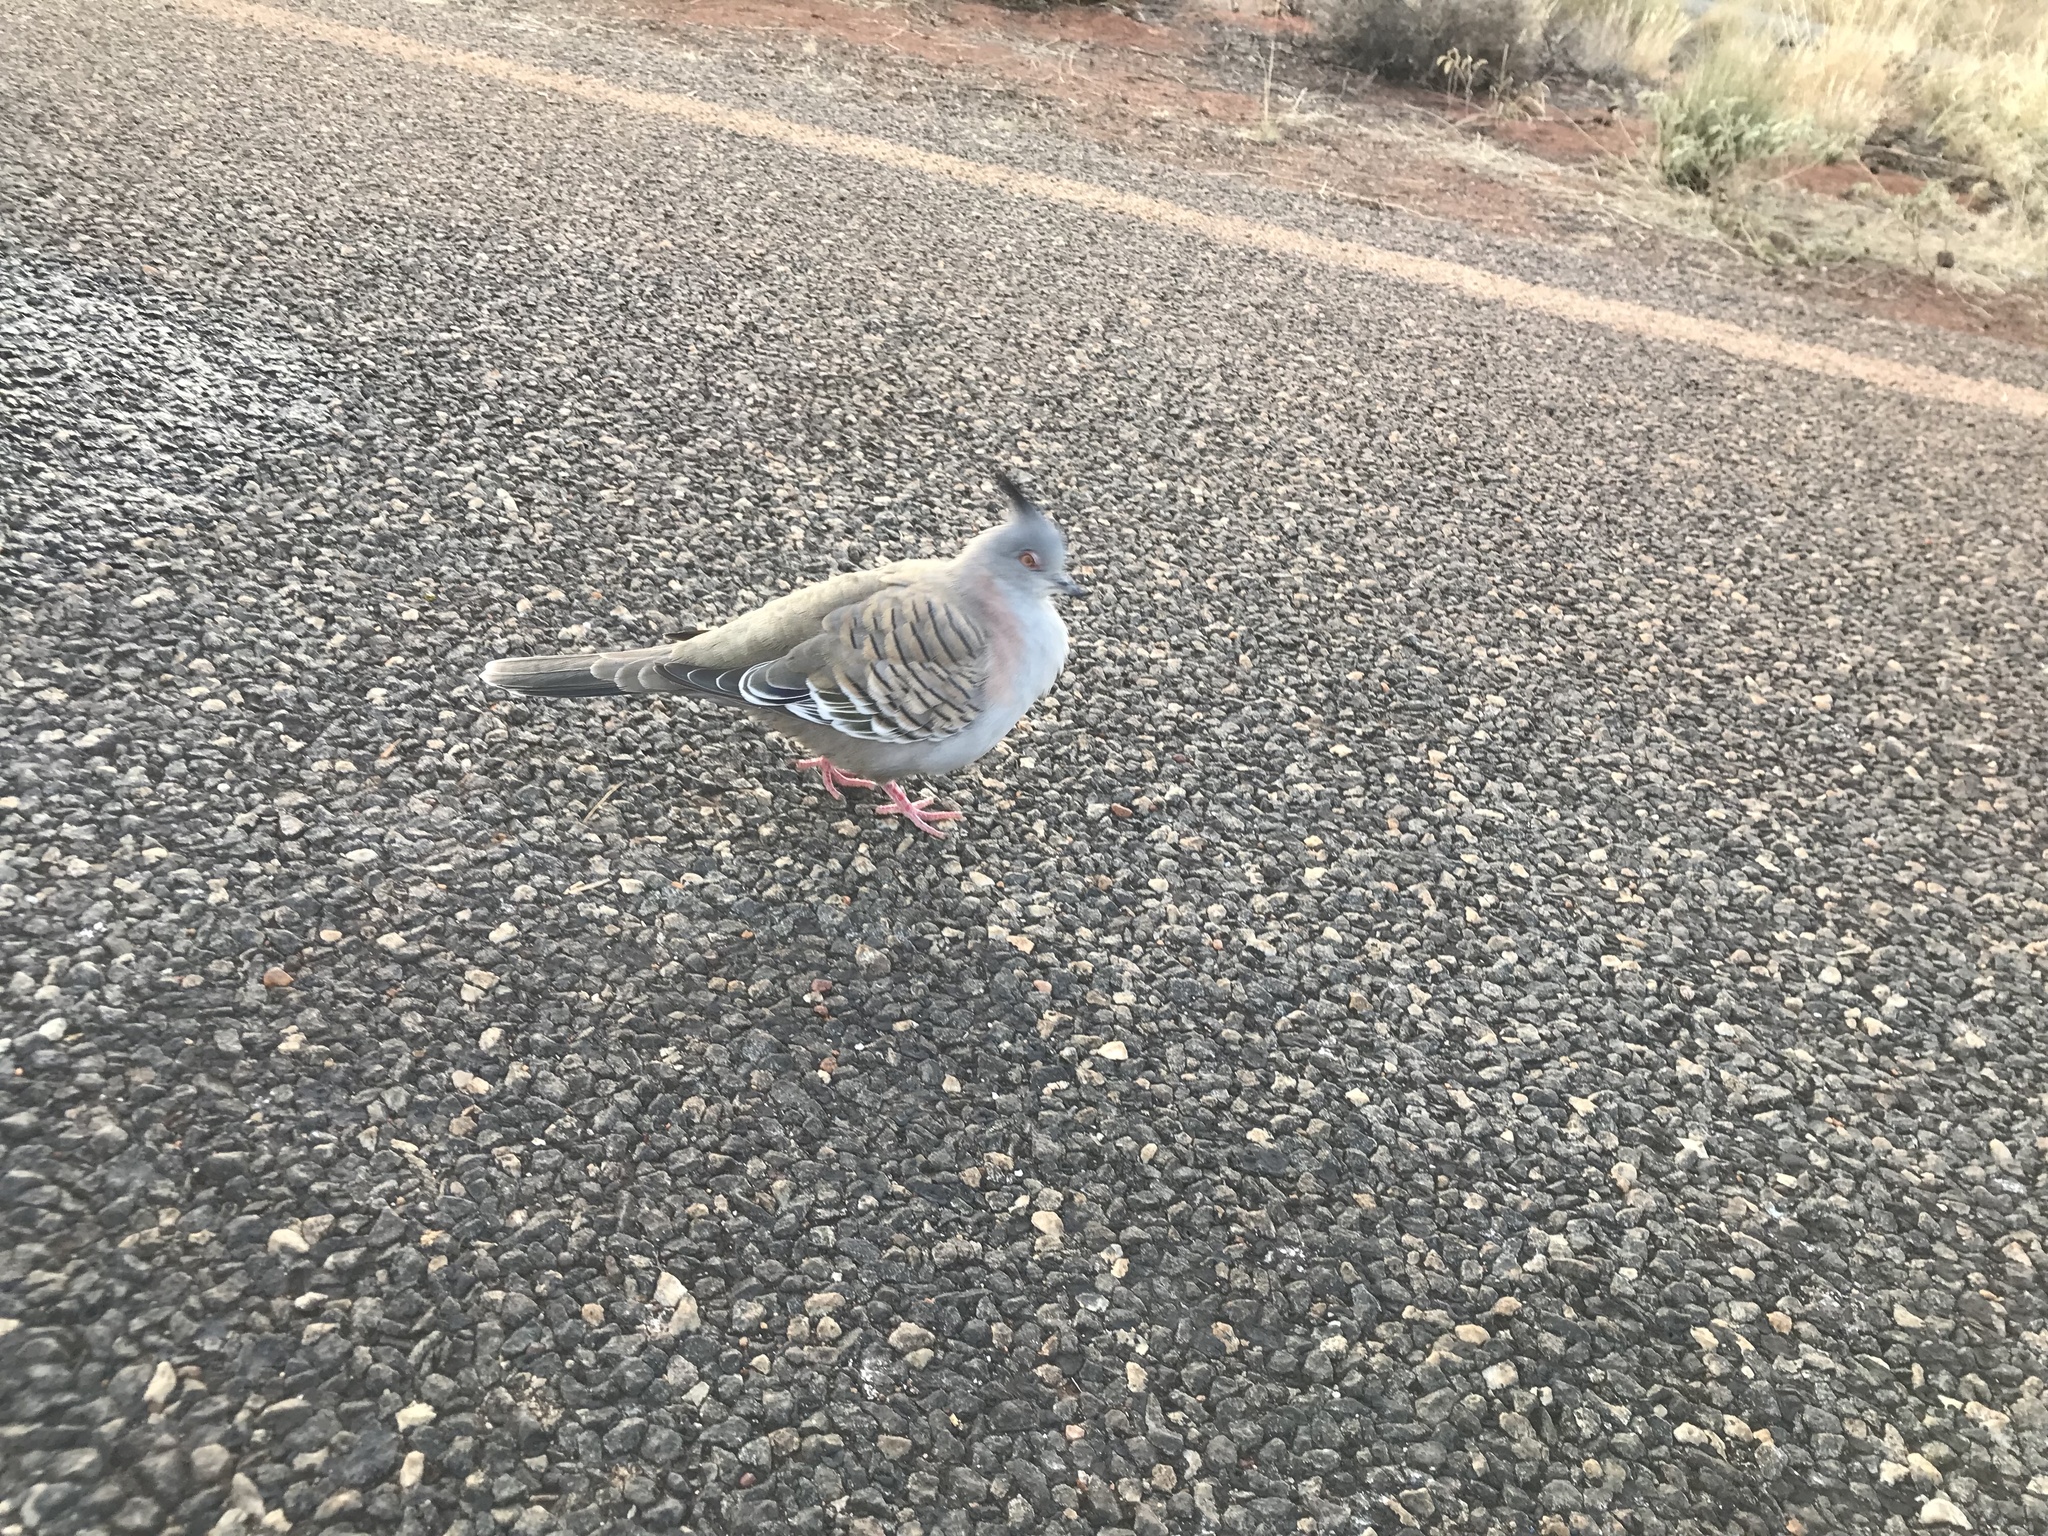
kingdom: Animalia
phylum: Chordata
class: Aves
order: Columbiformes
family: Columbidae
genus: Ocyphaps
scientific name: Ocyphaps lophotes
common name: Crested pigeon
